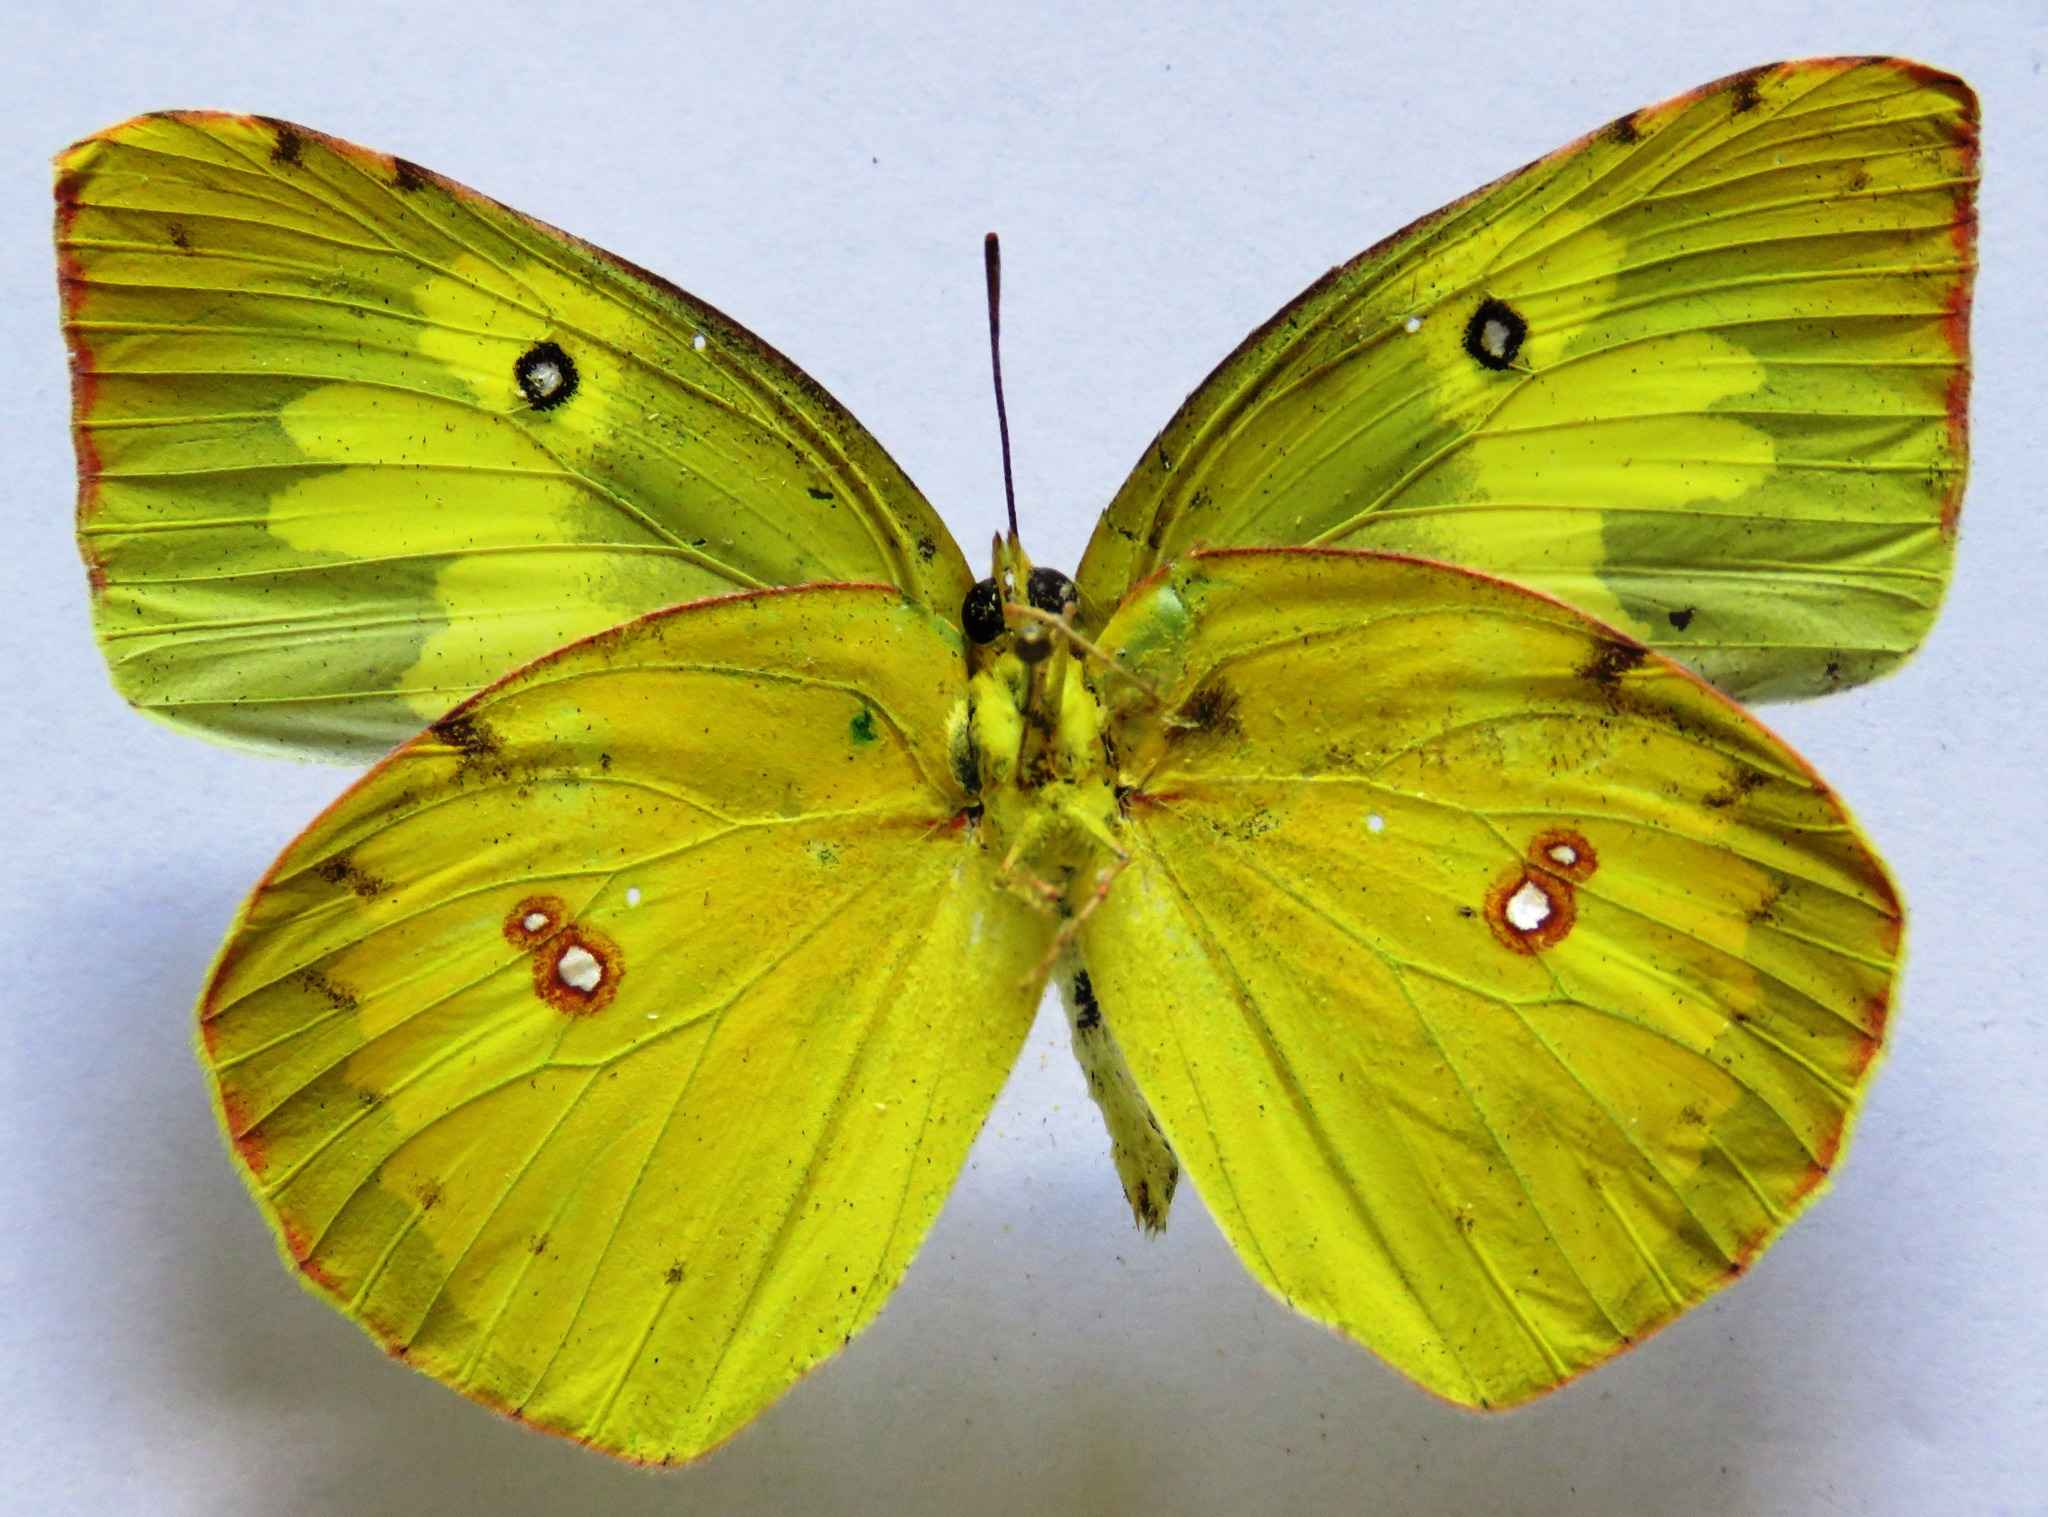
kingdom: Animalia
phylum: Arthropoda
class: Insecta
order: Lepidoptera
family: Pieridae
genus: Zerene
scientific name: Zerene cesonia
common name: Southern dogface
